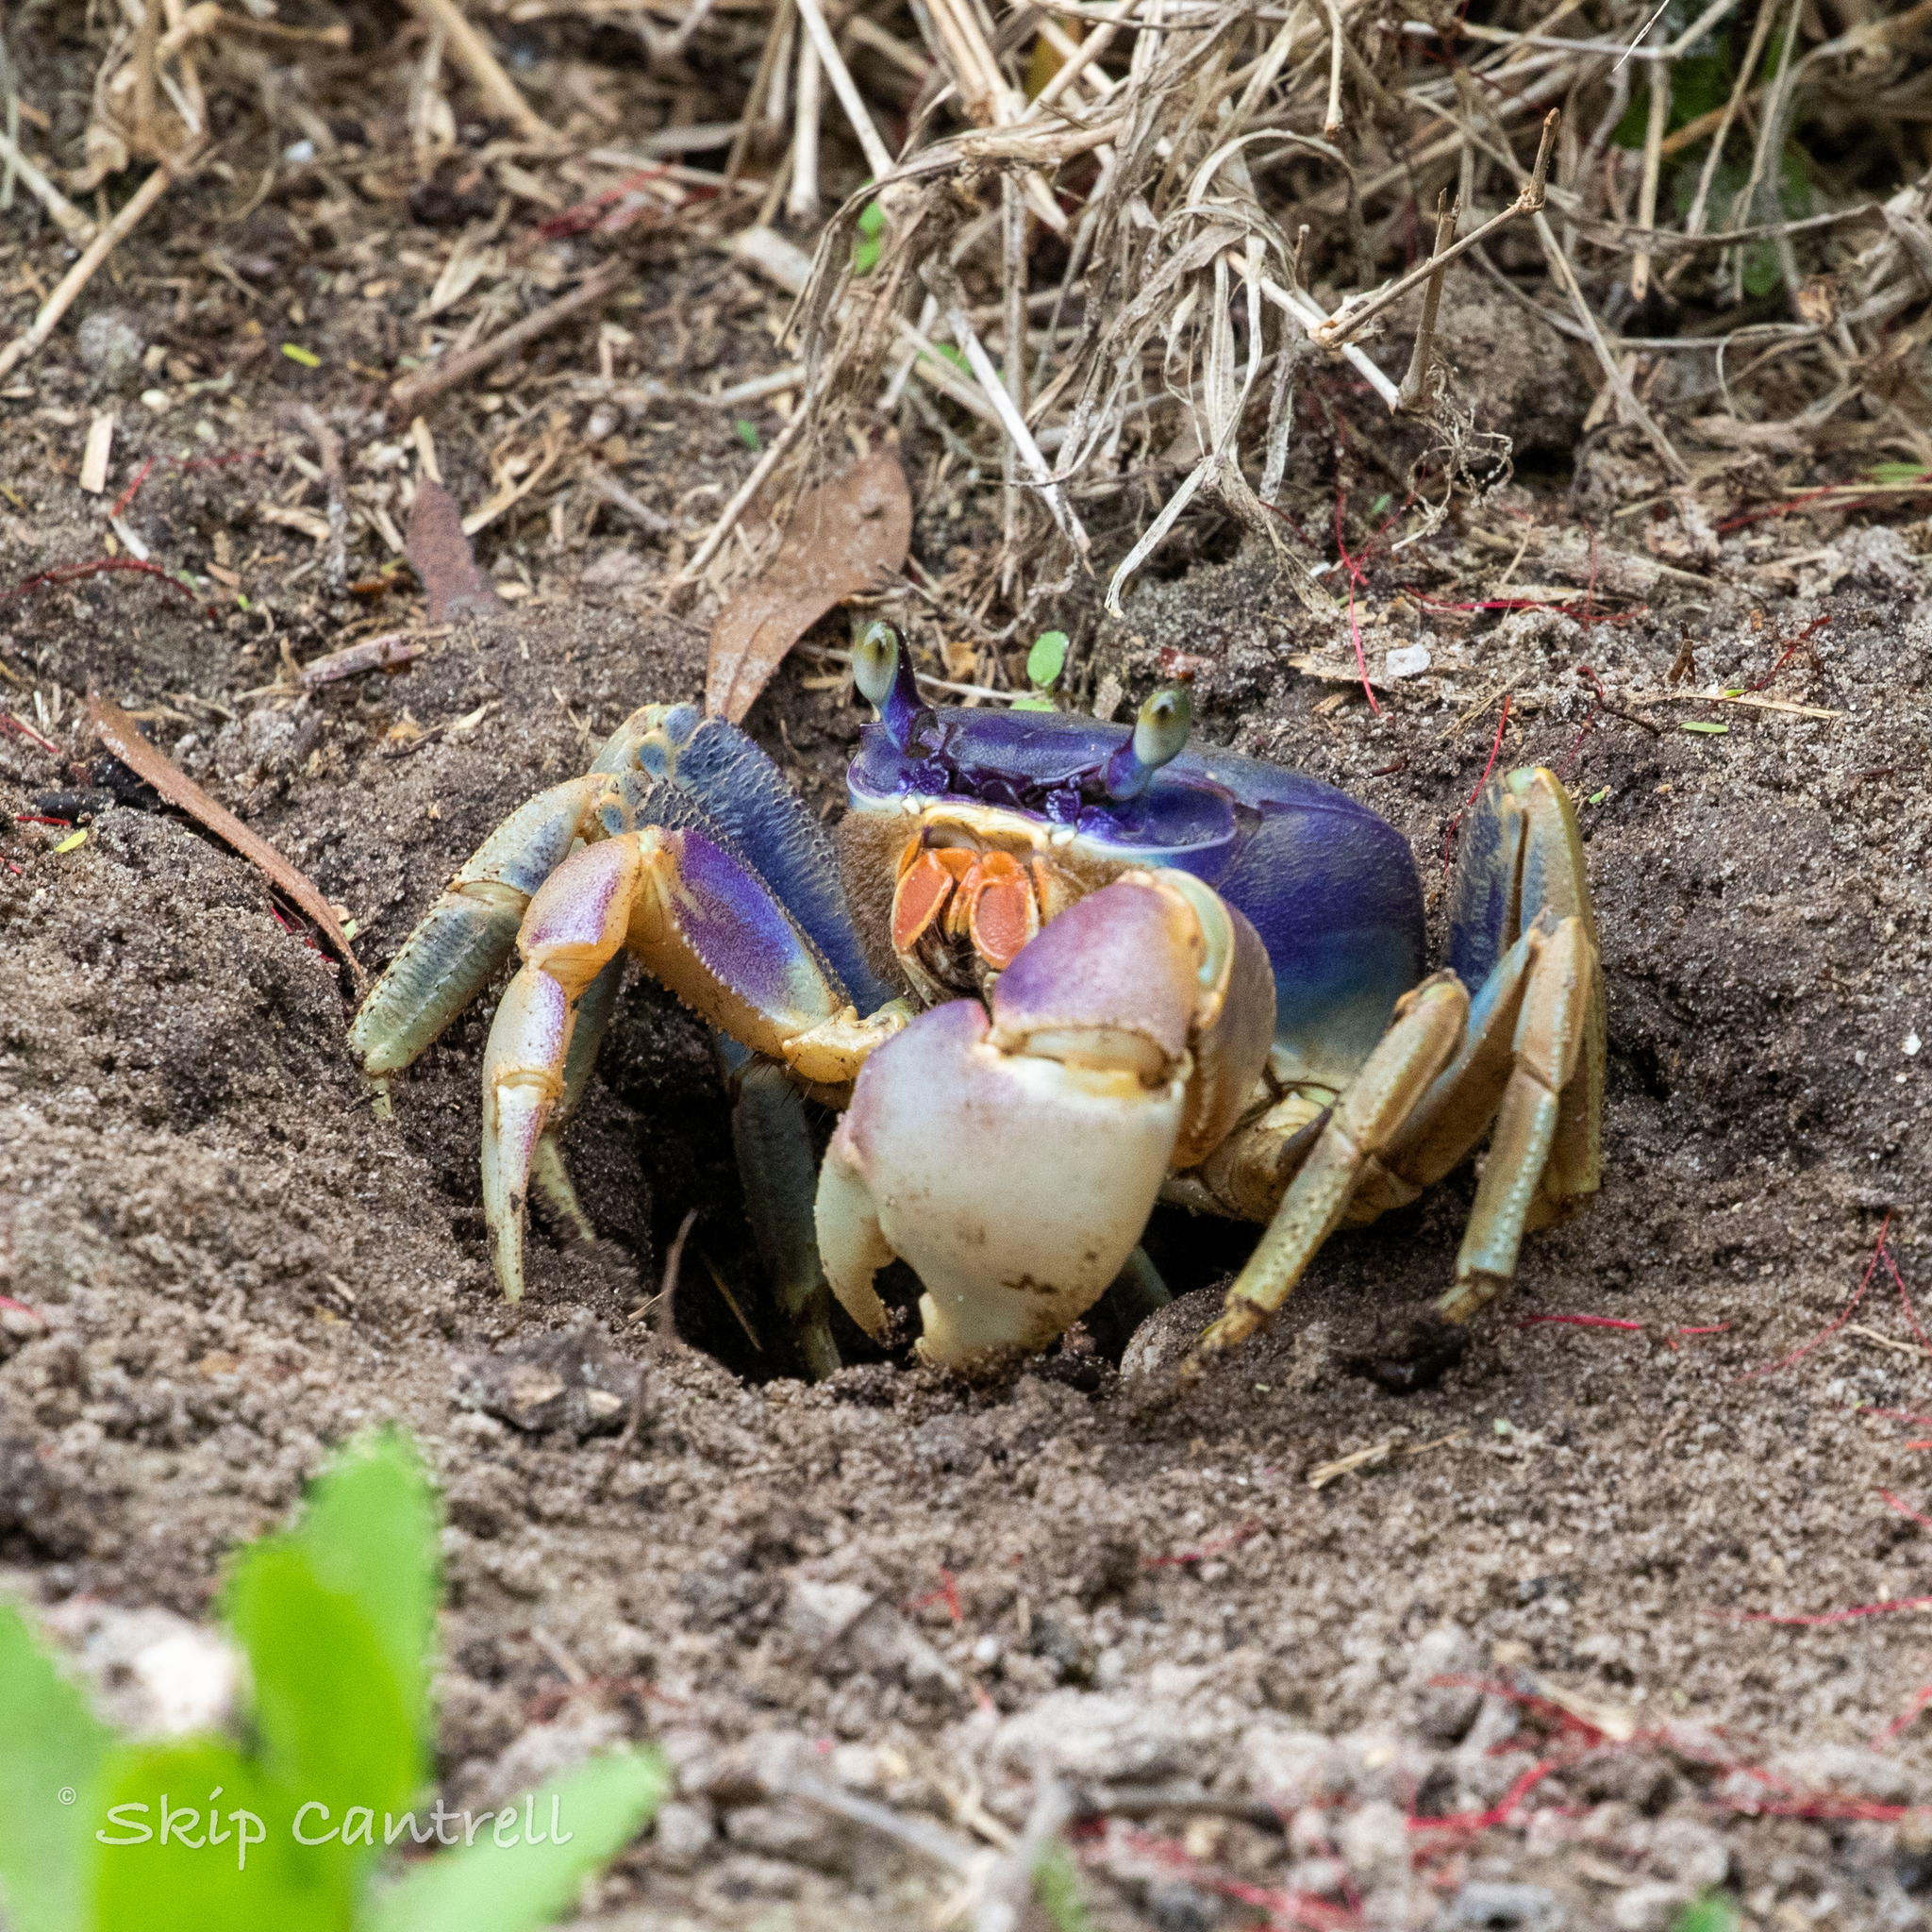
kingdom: Animalia
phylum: Arthropoda
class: Malacostraca
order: Decapoda
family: Gecarcinidae
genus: Cardisoma
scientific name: Cardisoma guanhumi
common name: Great land crab
